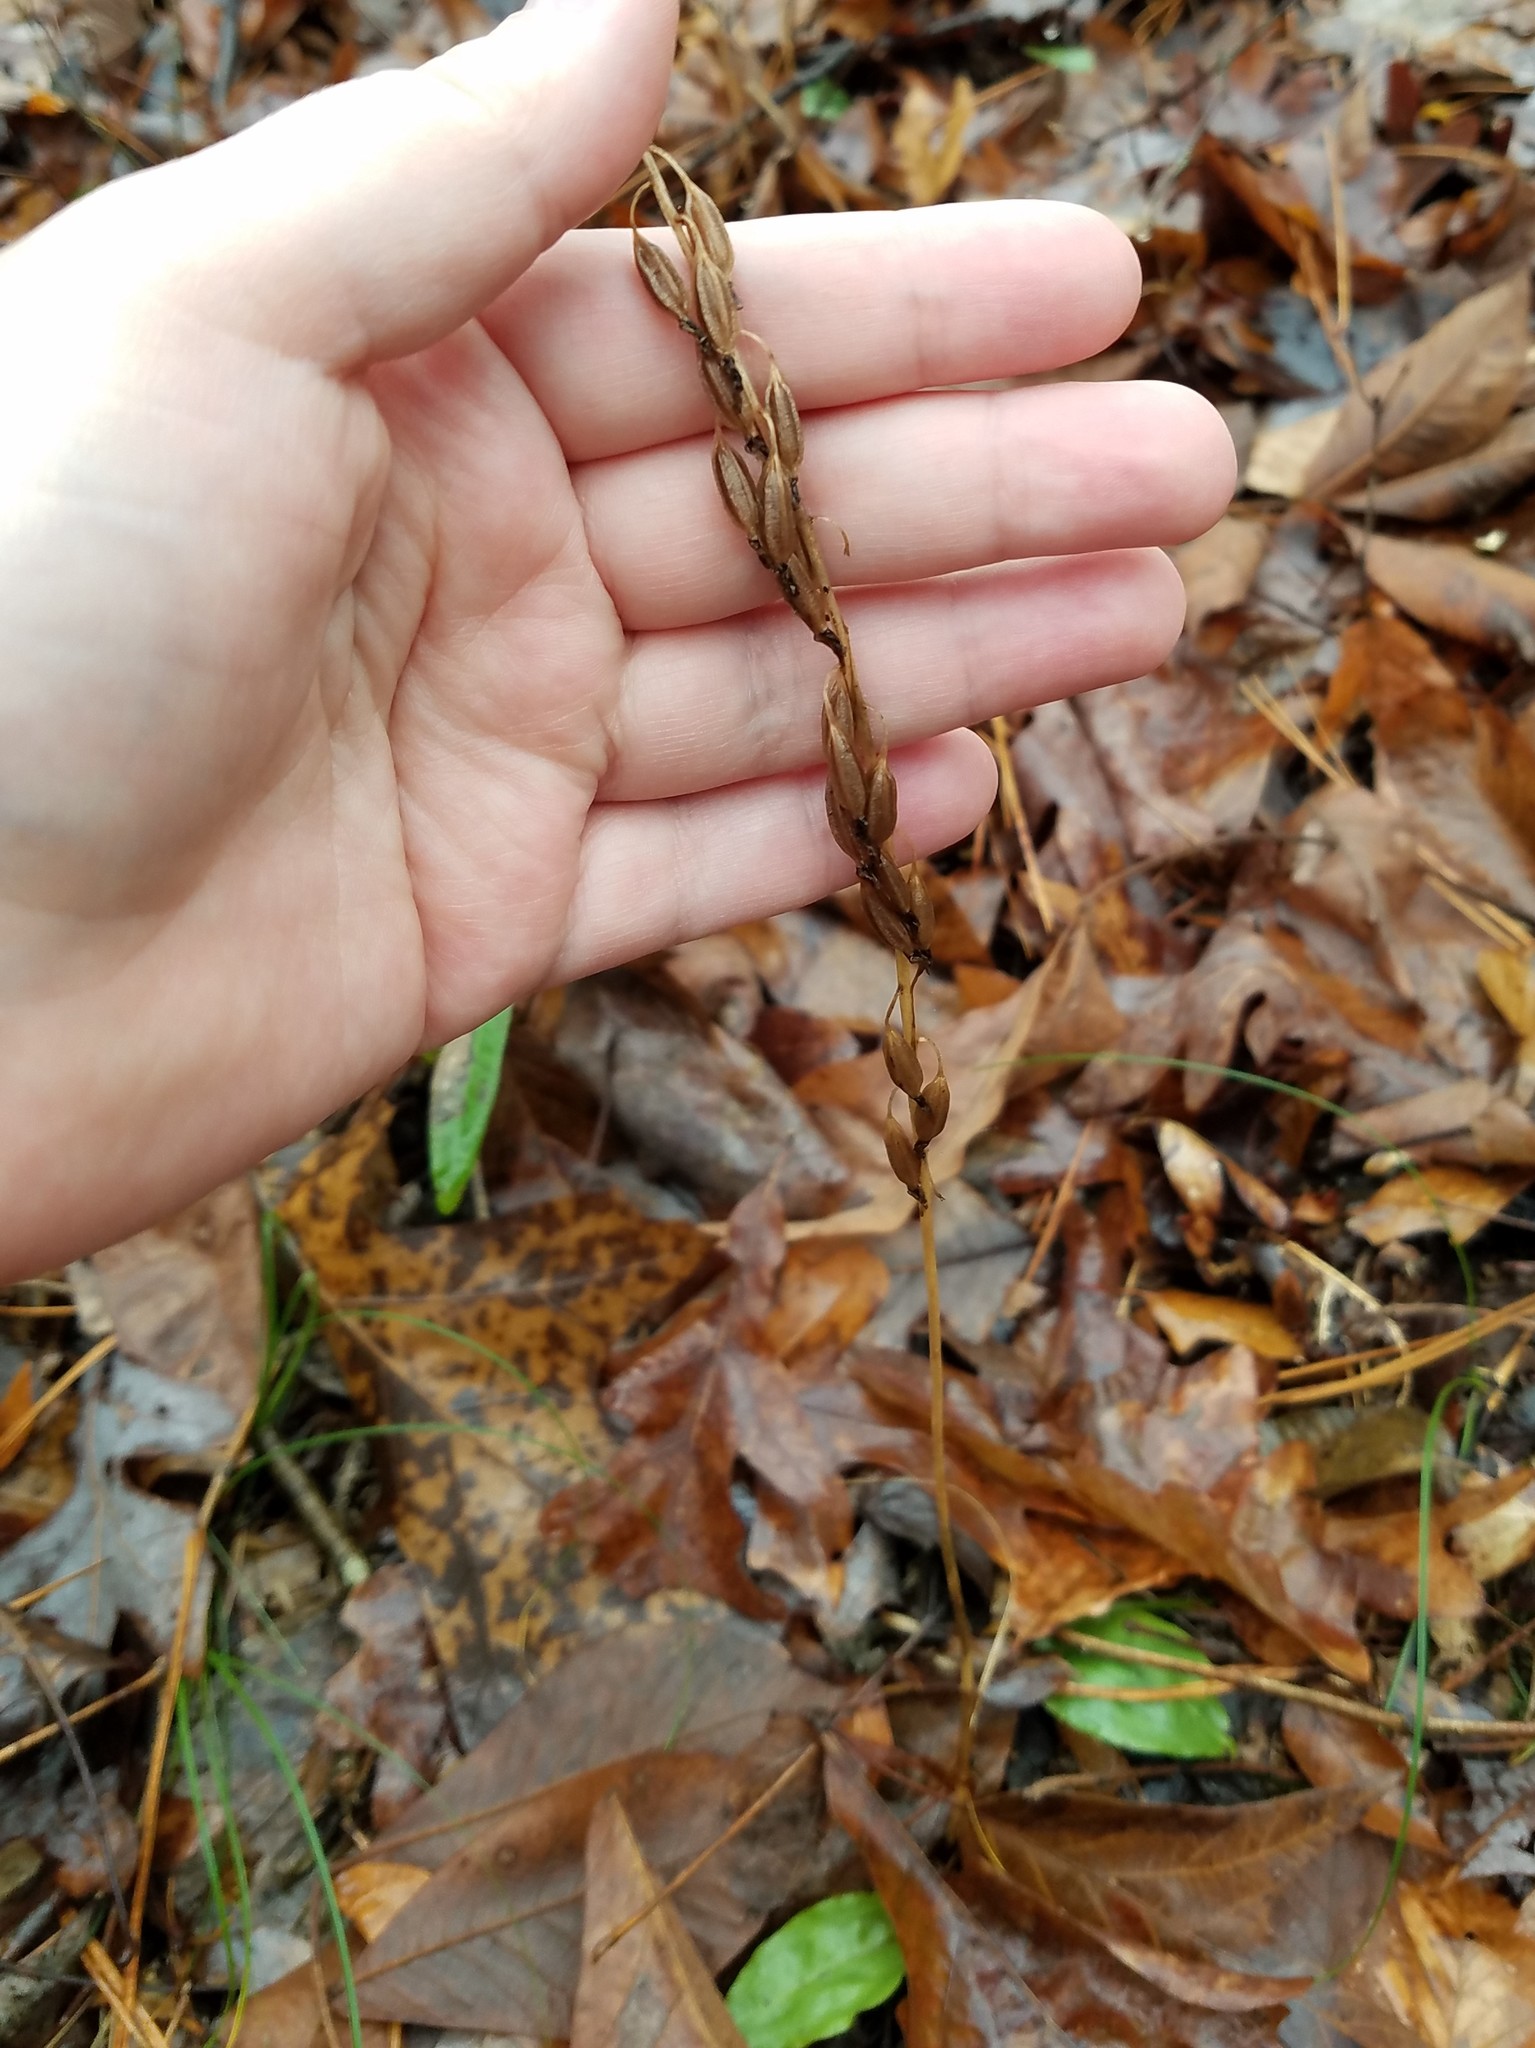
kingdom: Plantae
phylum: Tracheophyta
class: Liliopsida
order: Asparagales
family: Orchidaceae
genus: Tipularia
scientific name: Tipularia discolor
